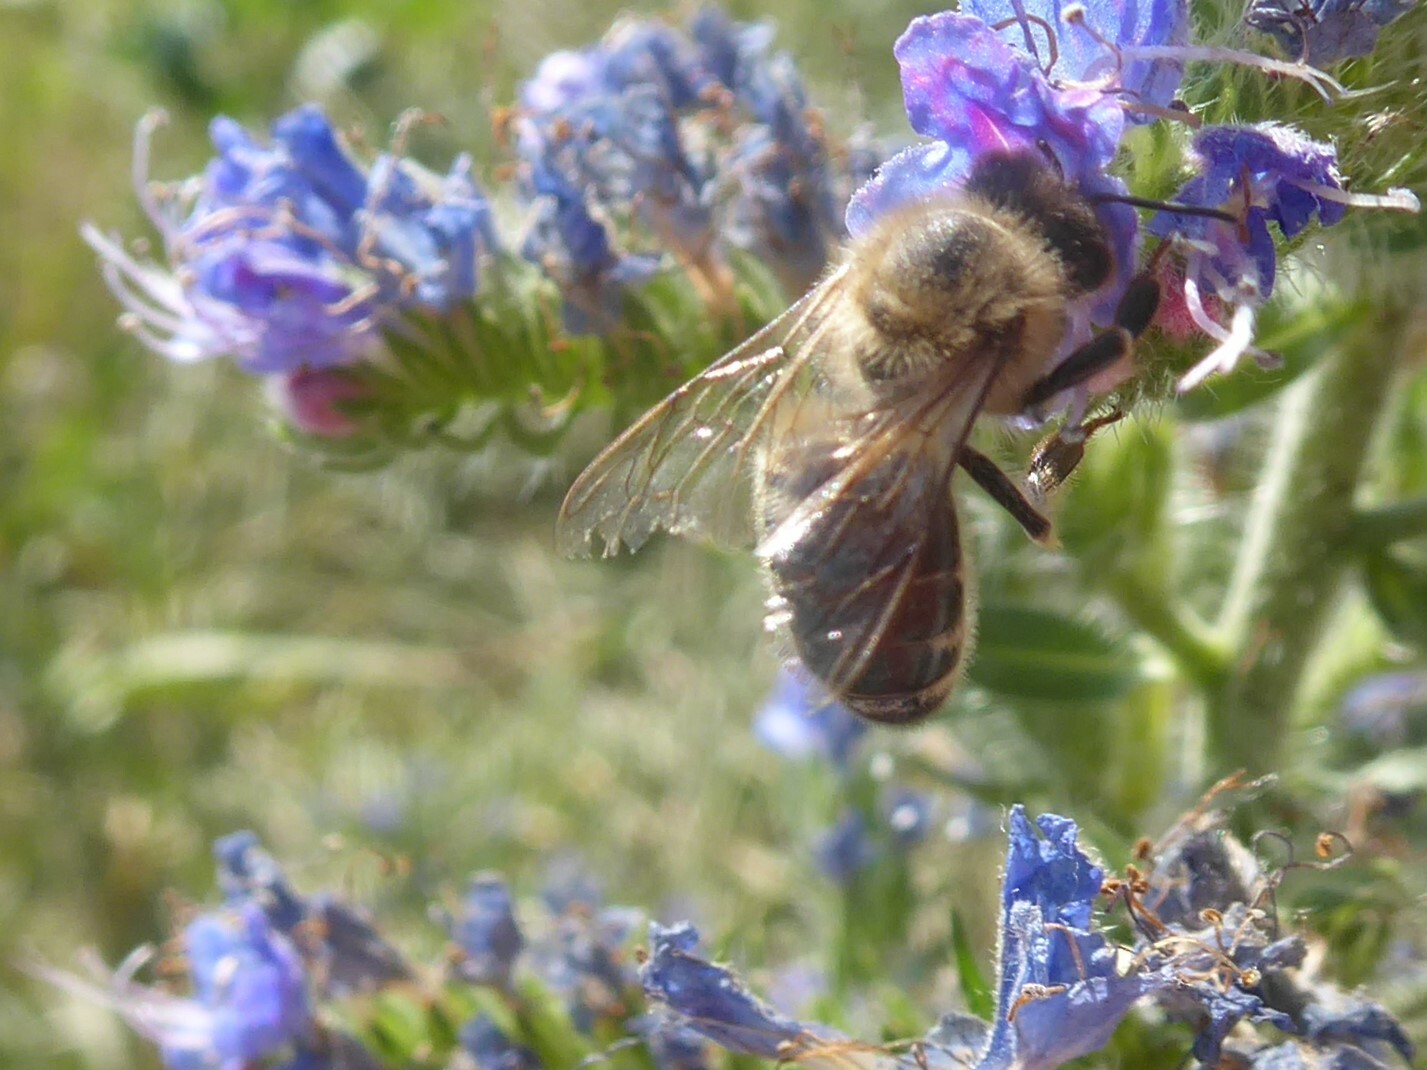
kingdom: Animalia
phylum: Arthropoda
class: Insecta
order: Hymenoptera
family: Apidae
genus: Apis
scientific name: Apis mellifera
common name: Honey bee
